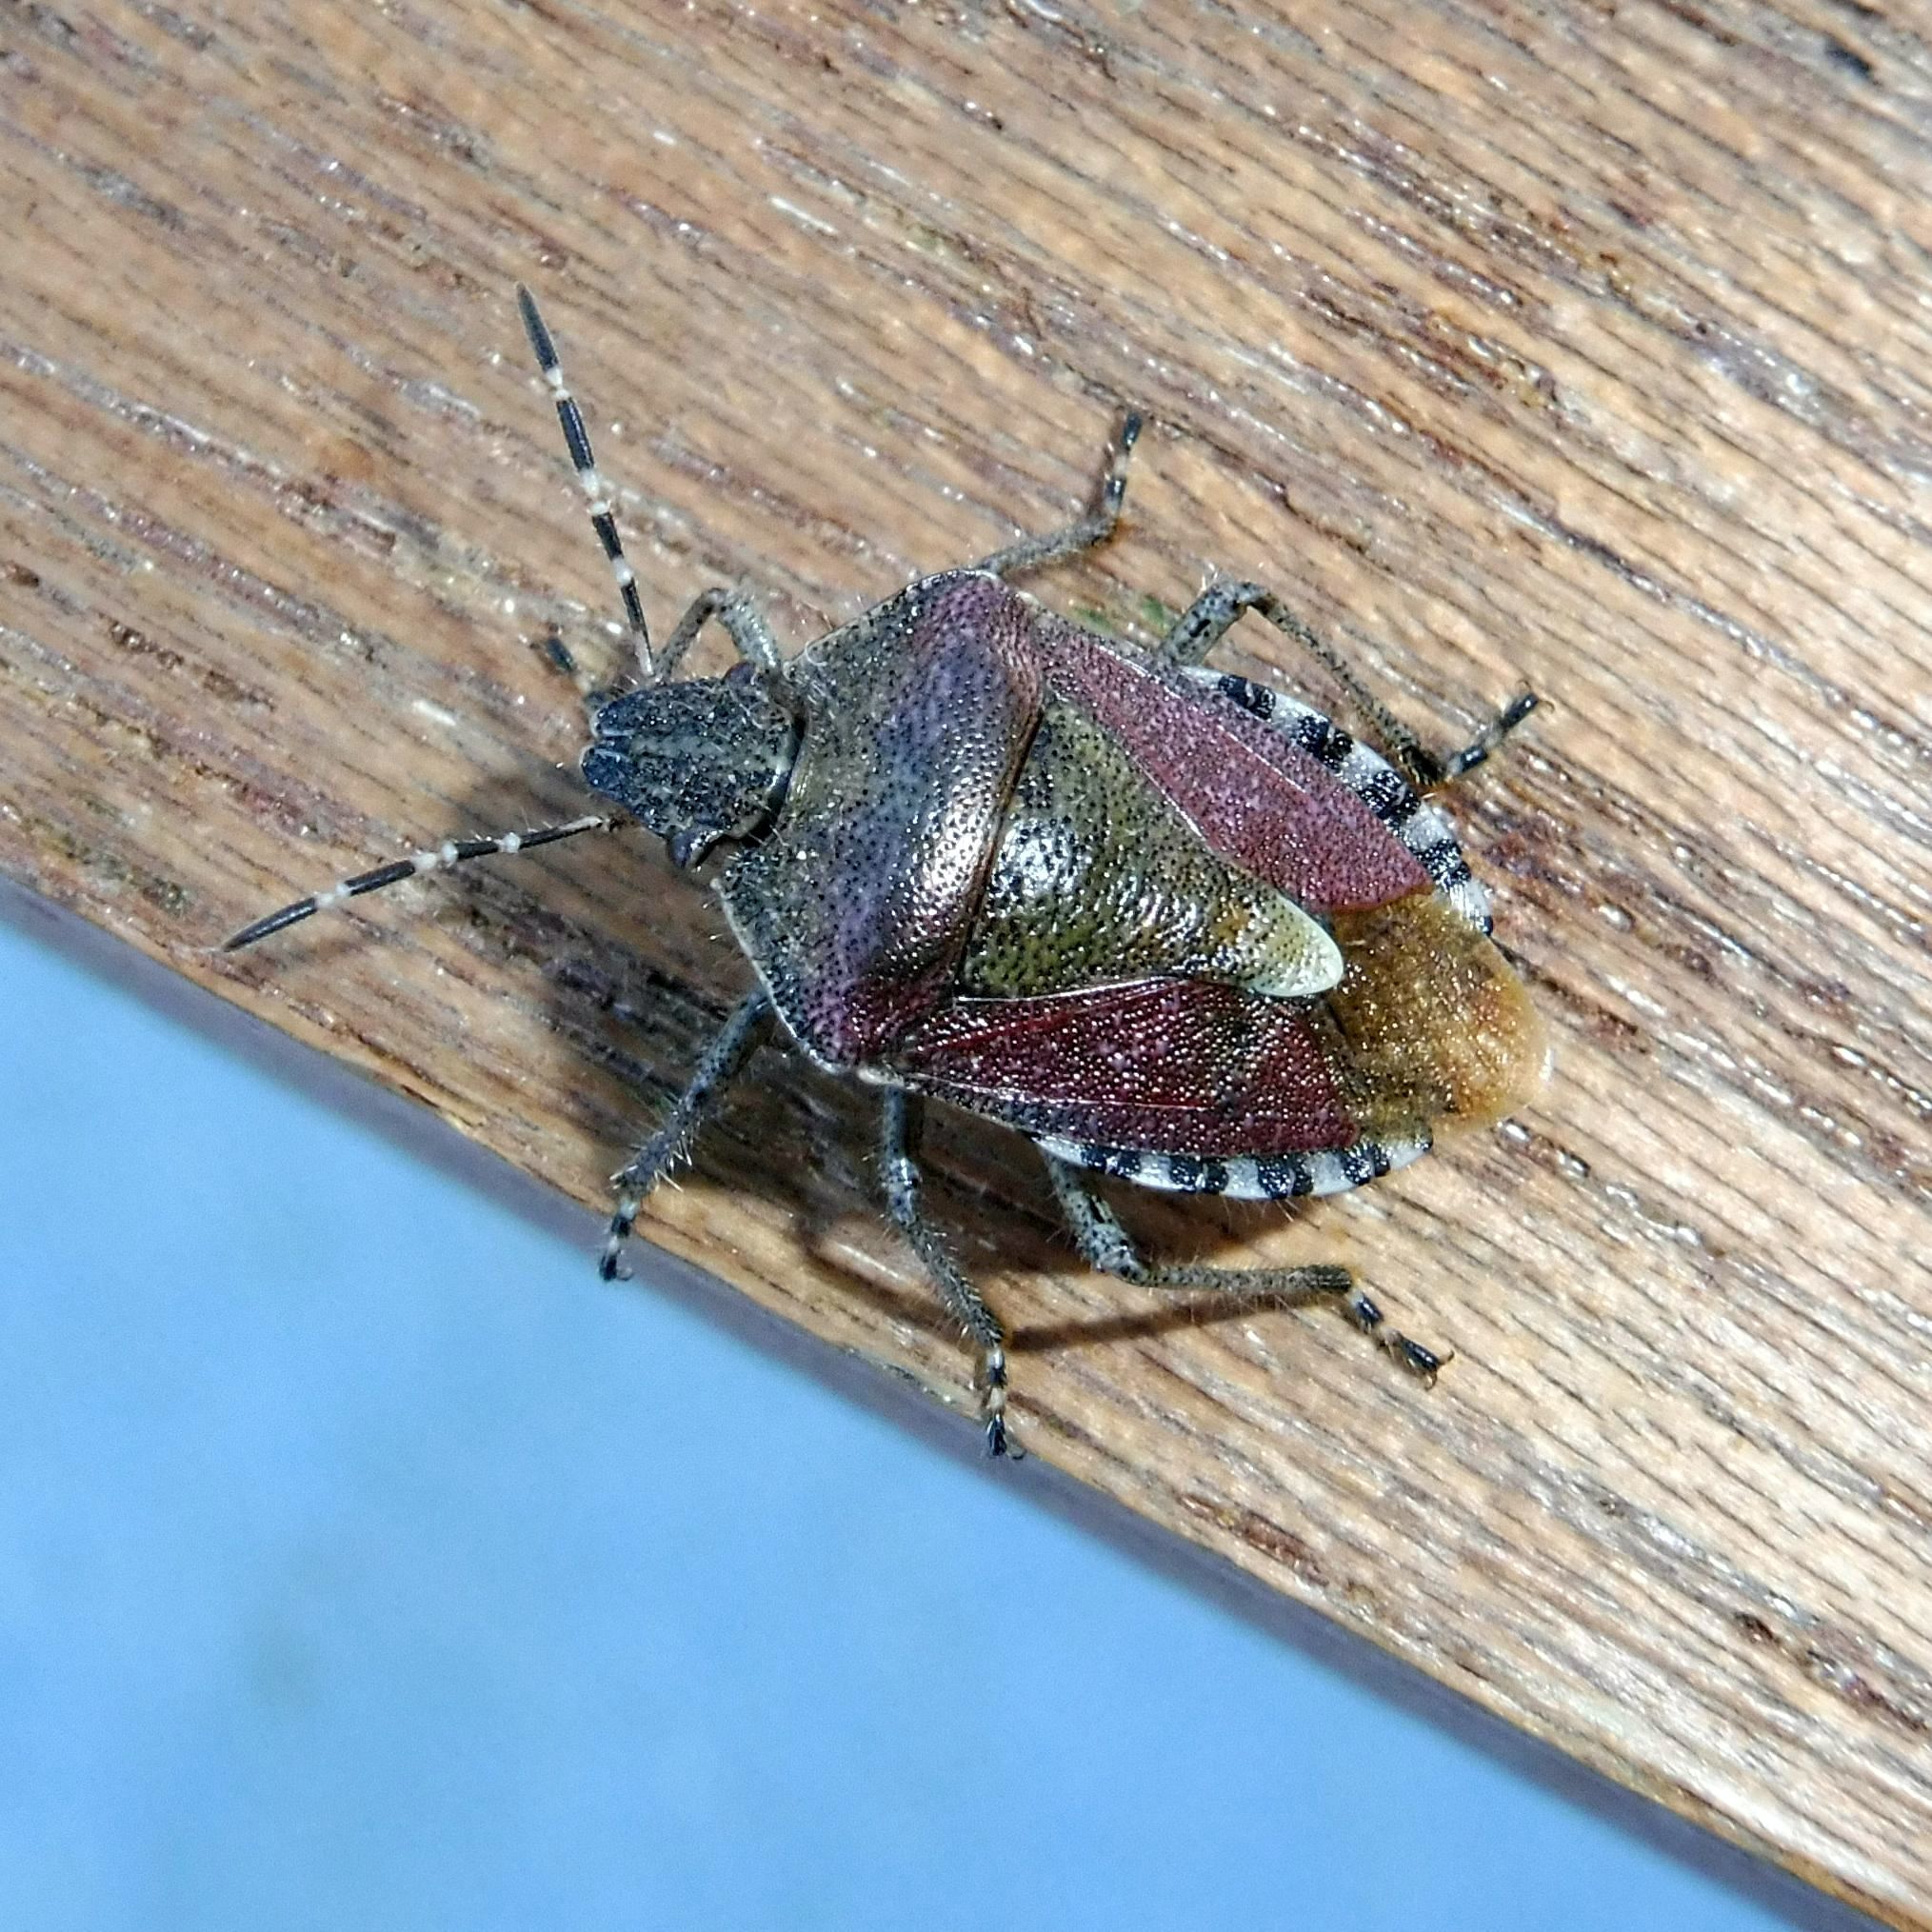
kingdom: Animalia
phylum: Arthropoda
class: Insecta
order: Hemiptera
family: Pentatomidae
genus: Dolycoris
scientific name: Dolycoris baccarum
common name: Sloe bug
